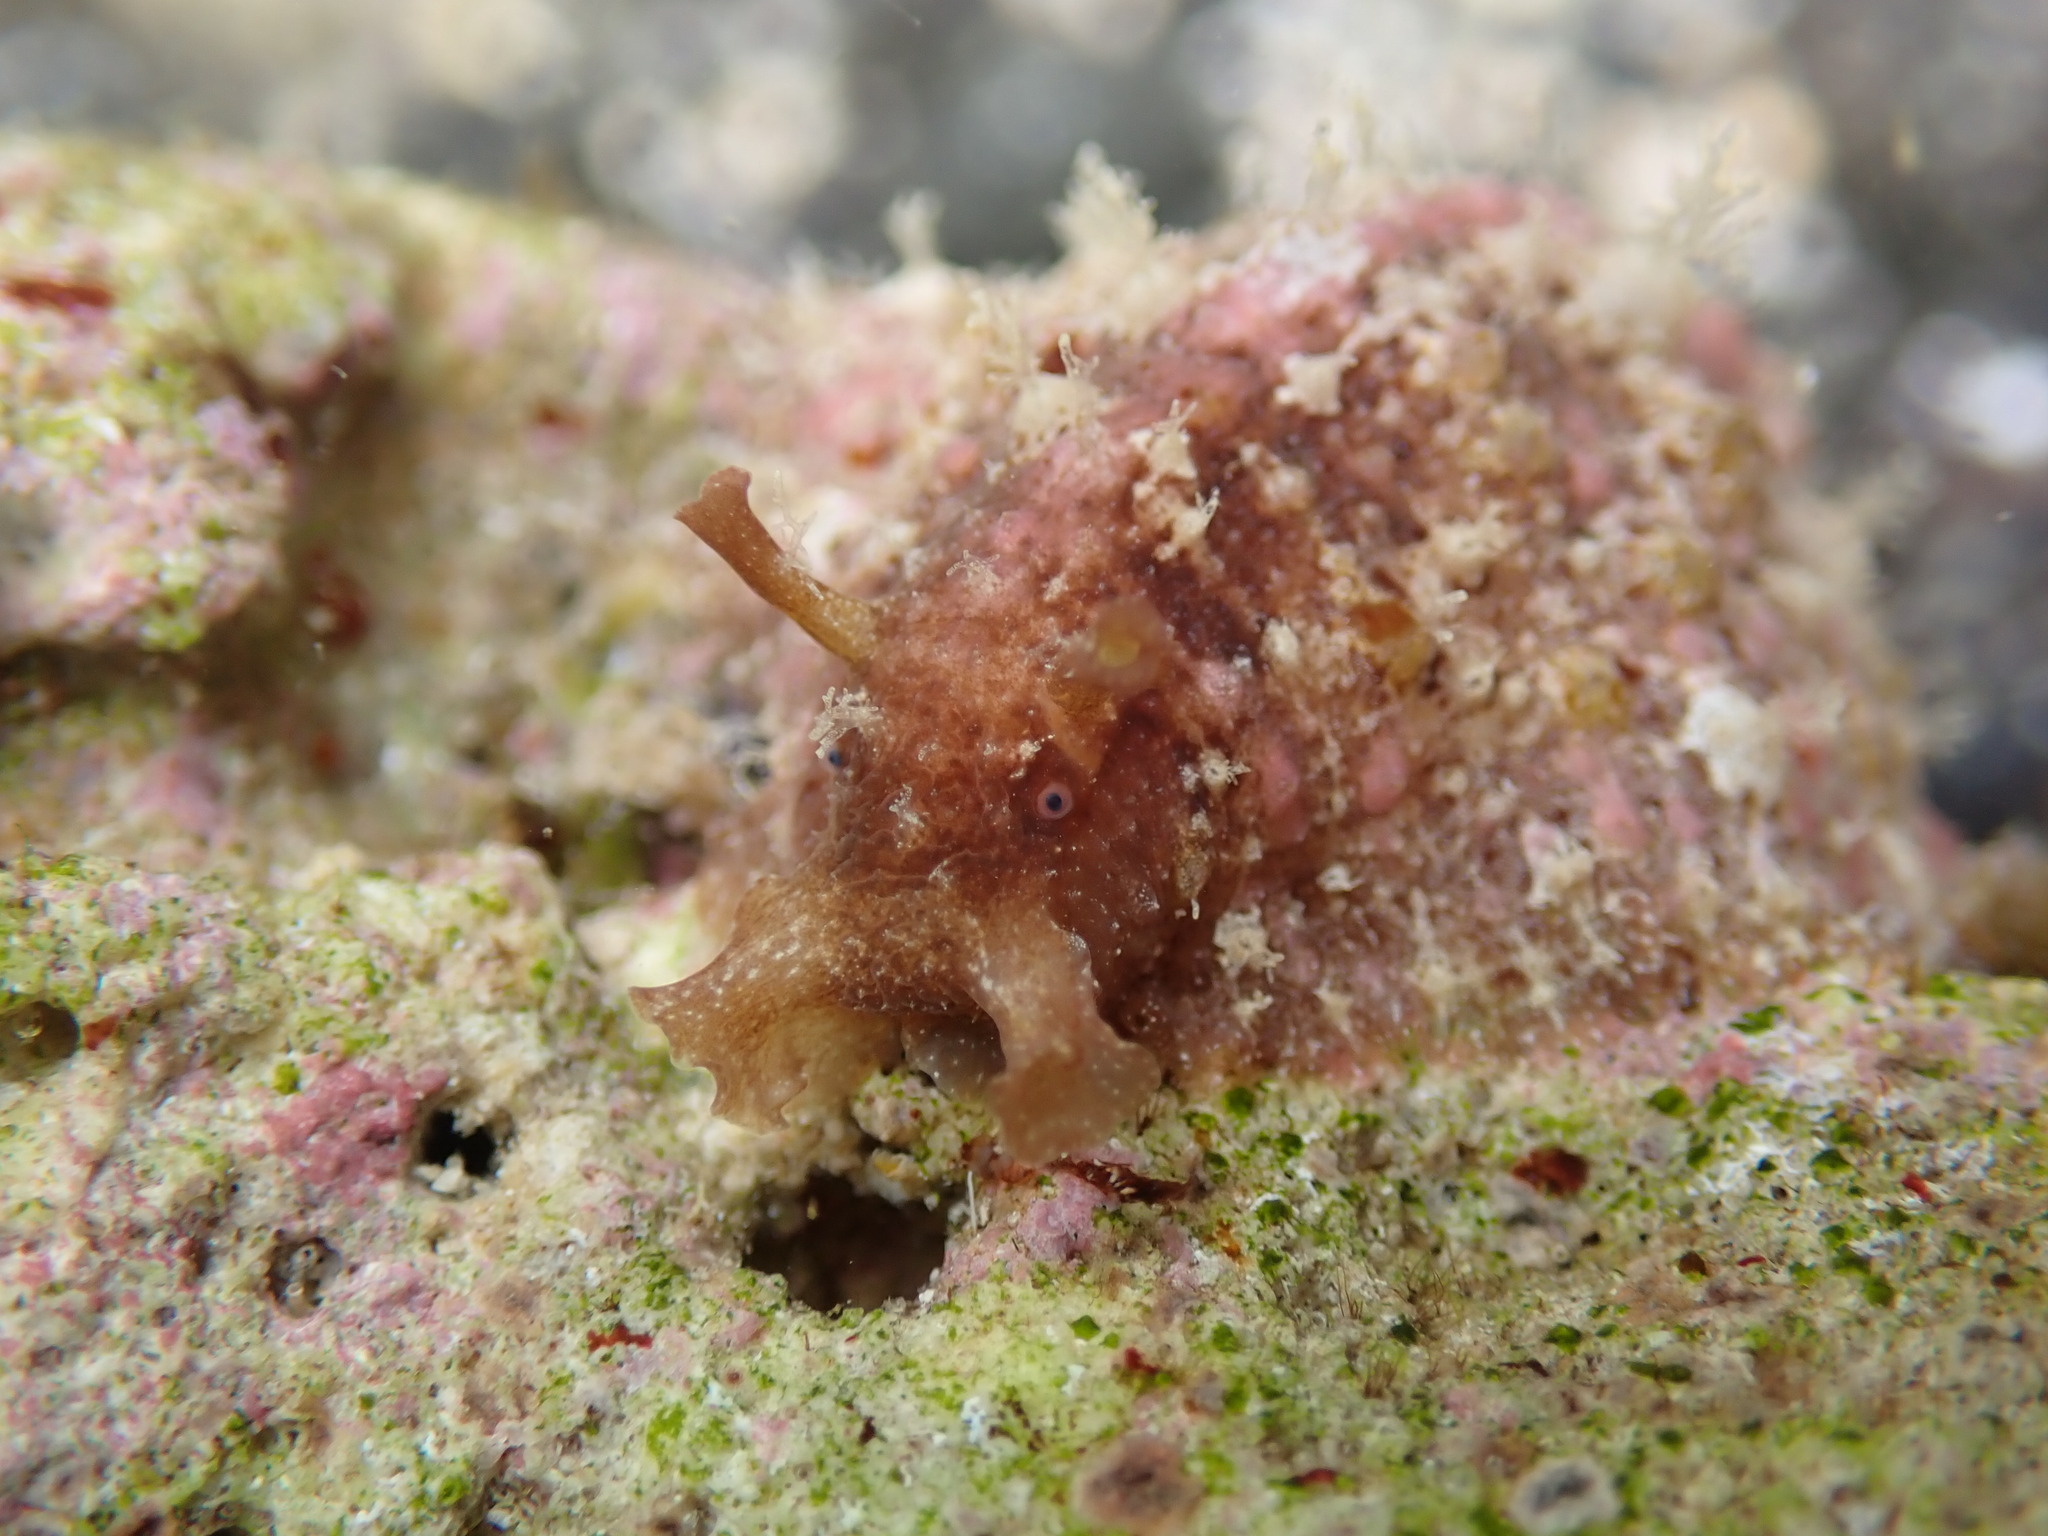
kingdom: Animalia
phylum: Mollusca
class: Gastropoda
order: Aplysiida
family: Aplysiidae
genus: Dolabrifera
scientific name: Dolabrifera dolabrifera
